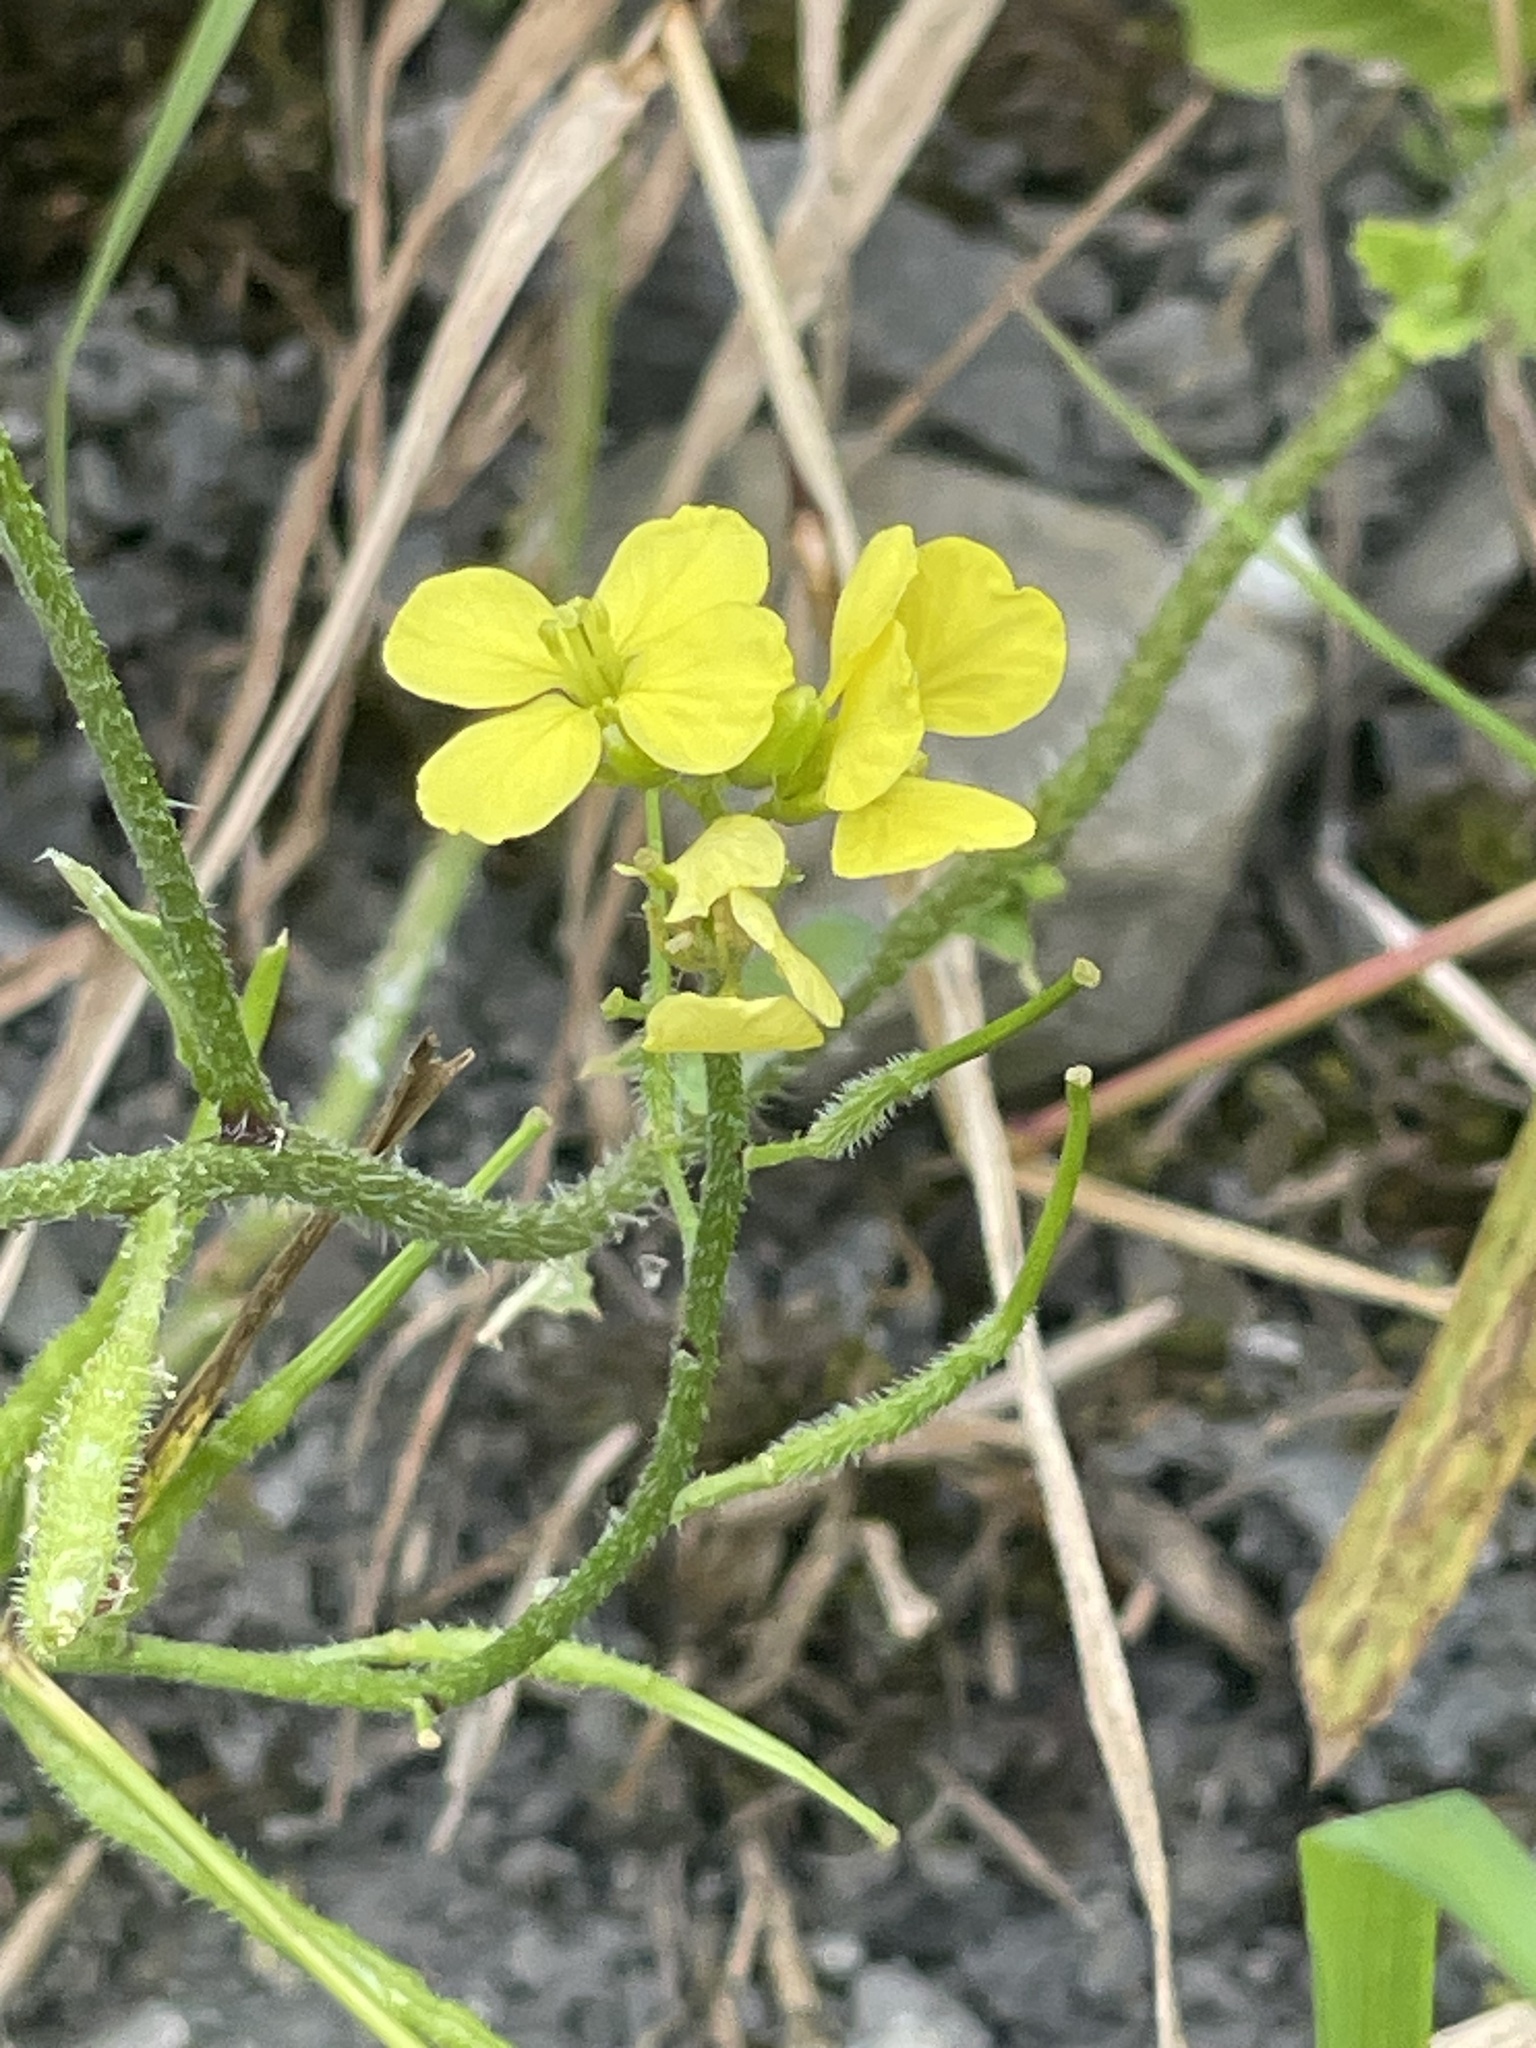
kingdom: Plantae
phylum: Tracheophyta
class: Magnoliopsida
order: Brassicales
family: Brassicaceae
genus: Sinapis
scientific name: Sinapis arvensis
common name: Charlock
